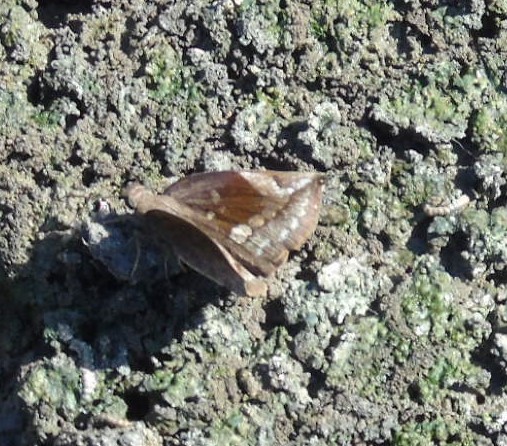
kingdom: Animalia
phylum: Arthropoda
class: Insecta
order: Lepidoptera
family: Hesperiidae
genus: Achlyodes
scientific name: Achlyodes thraso
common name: Sickle-winged skipper
